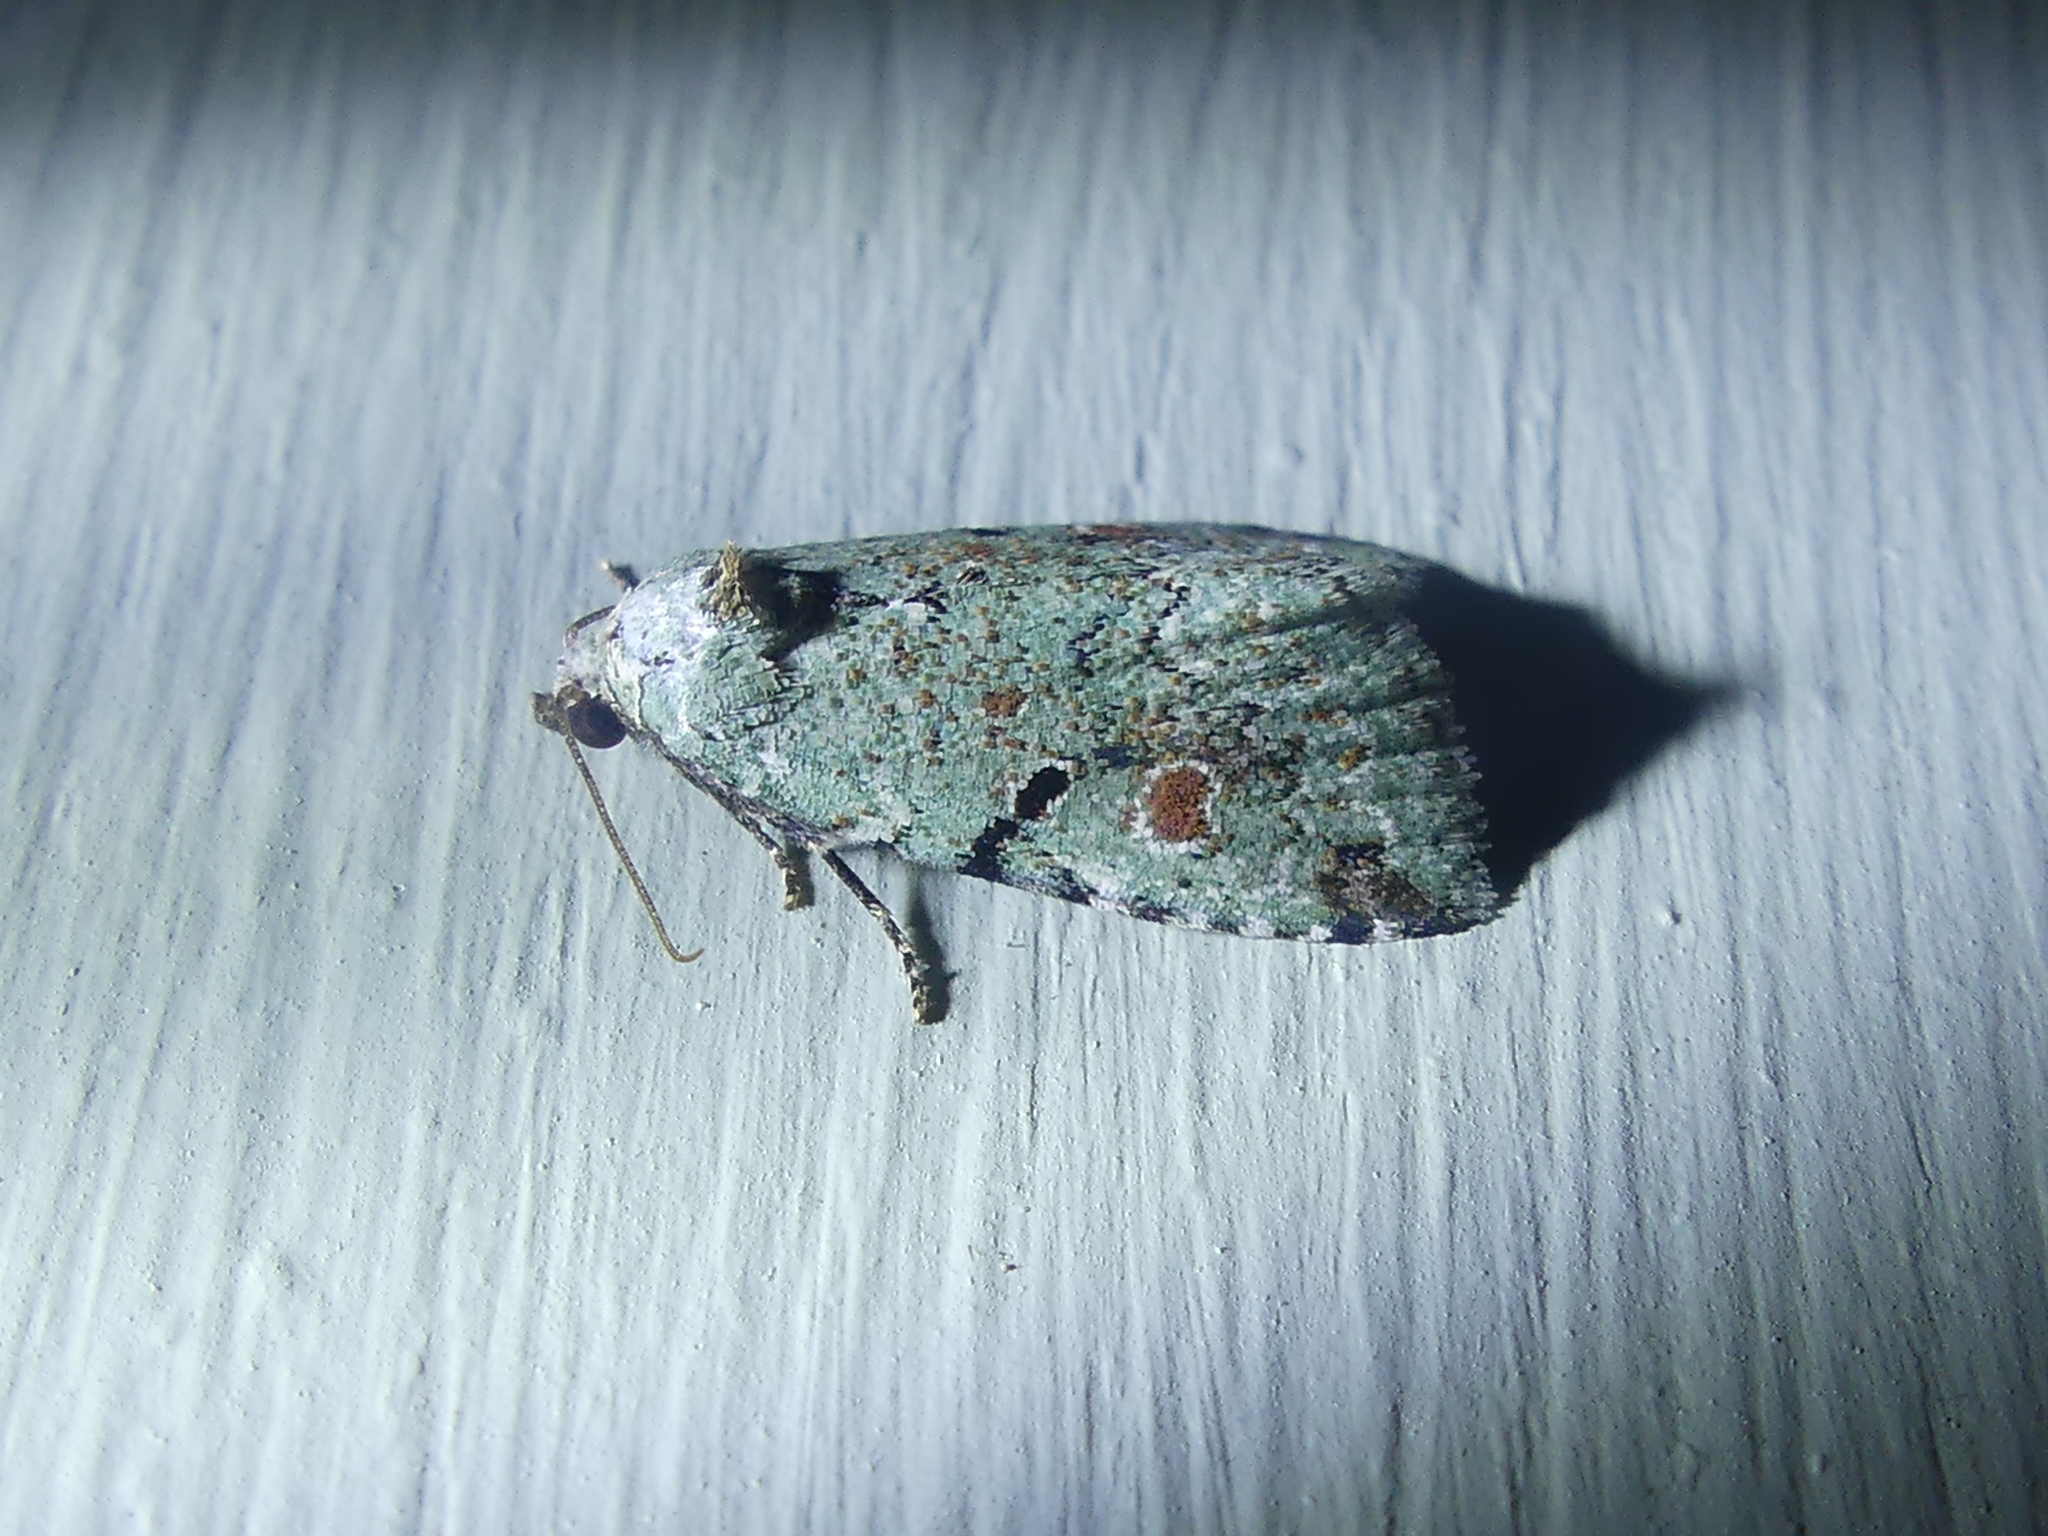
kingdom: Animalia
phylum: Arthropoda
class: Insecta
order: Lepidoptera
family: Noctuidae
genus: Maliattha
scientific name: Maliattha concinnimacula
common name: Red-spotted glyph
